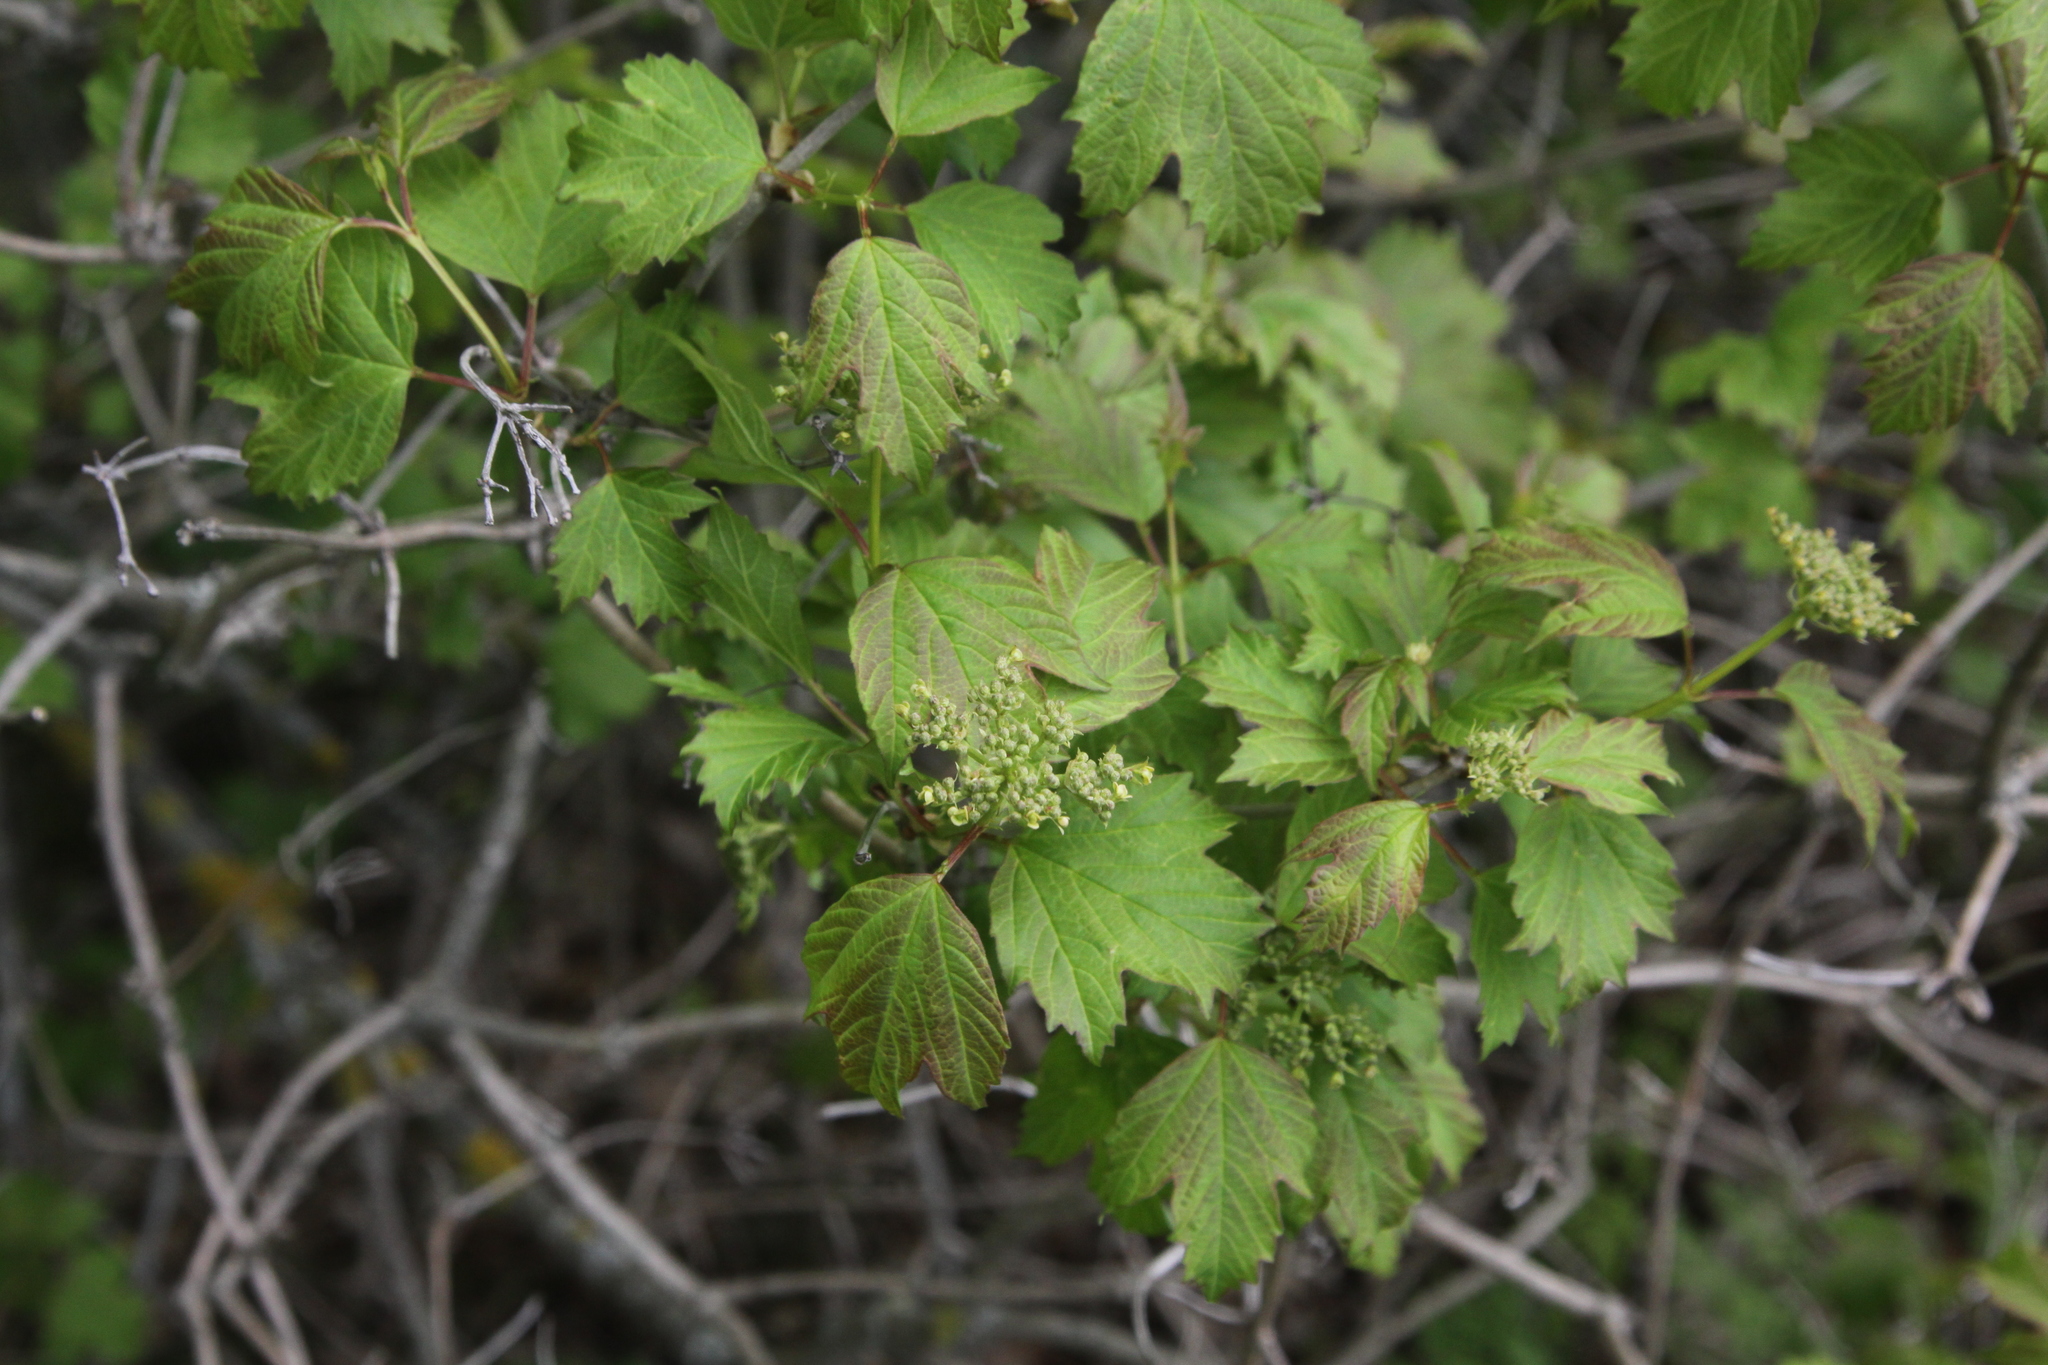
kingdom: Plantae
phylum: Tracheophyta
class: Magnoliopsida
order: Dipsacales
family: Viburnaceae
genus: Viburnum
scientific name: Viburnum opulus
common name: Guelder-rose
